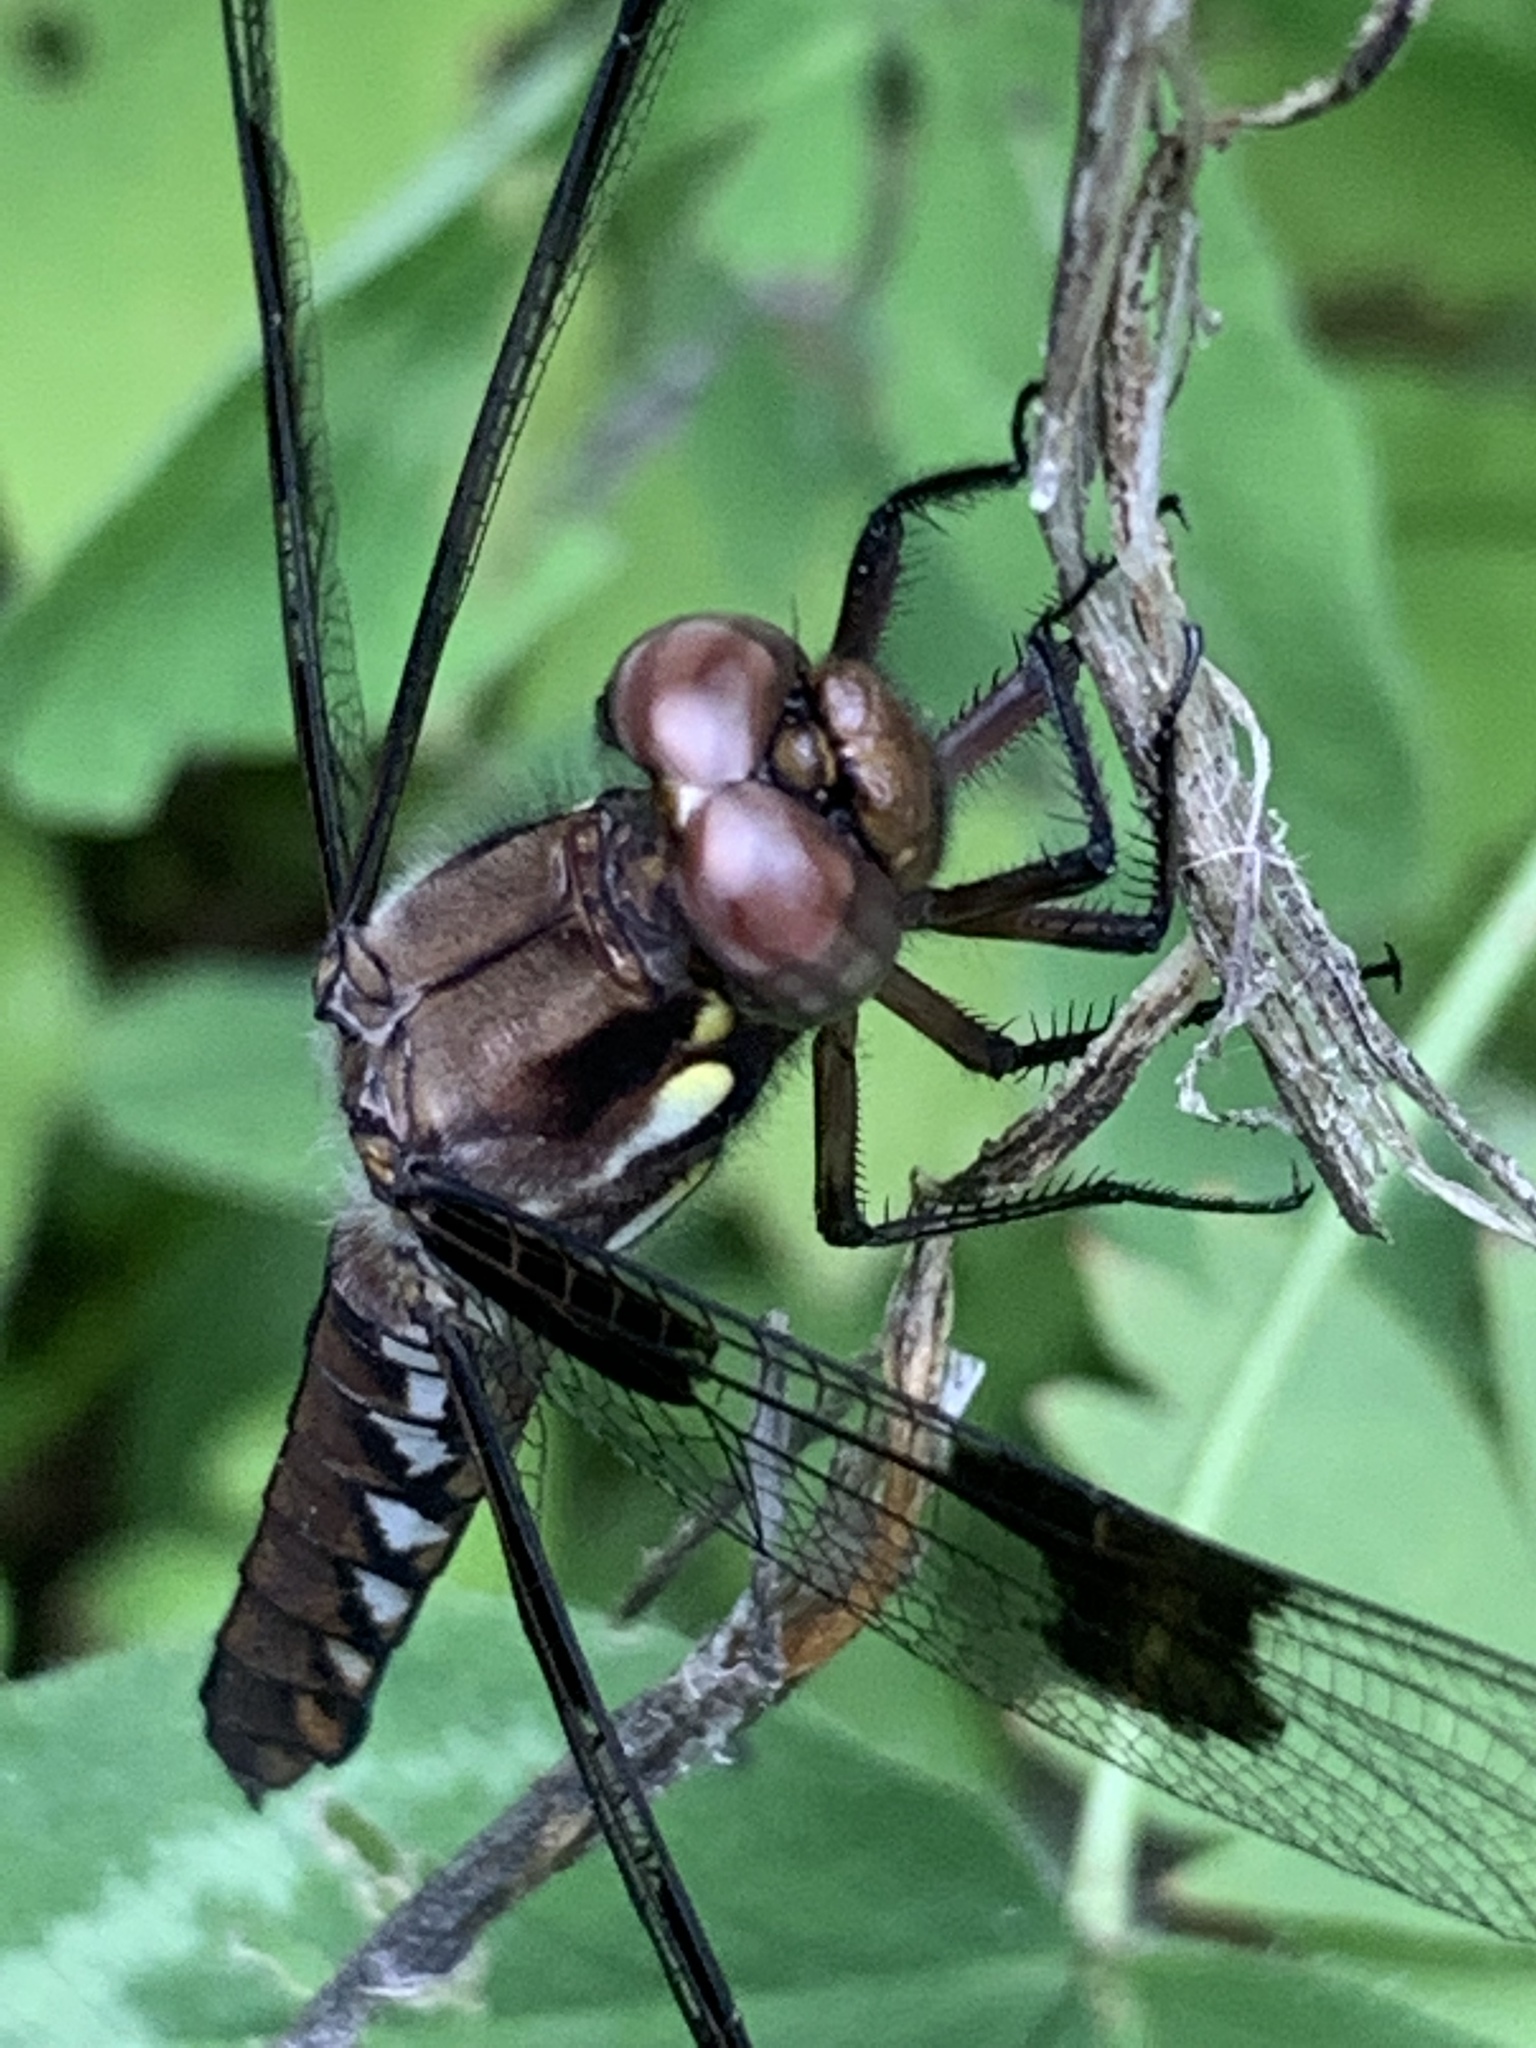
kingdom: Animalia
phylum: Arthropoda
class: Insecta
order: Odonata
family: Libellulidae
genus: Plathemis
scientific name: Plathemis lydia
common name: Common whitetail
